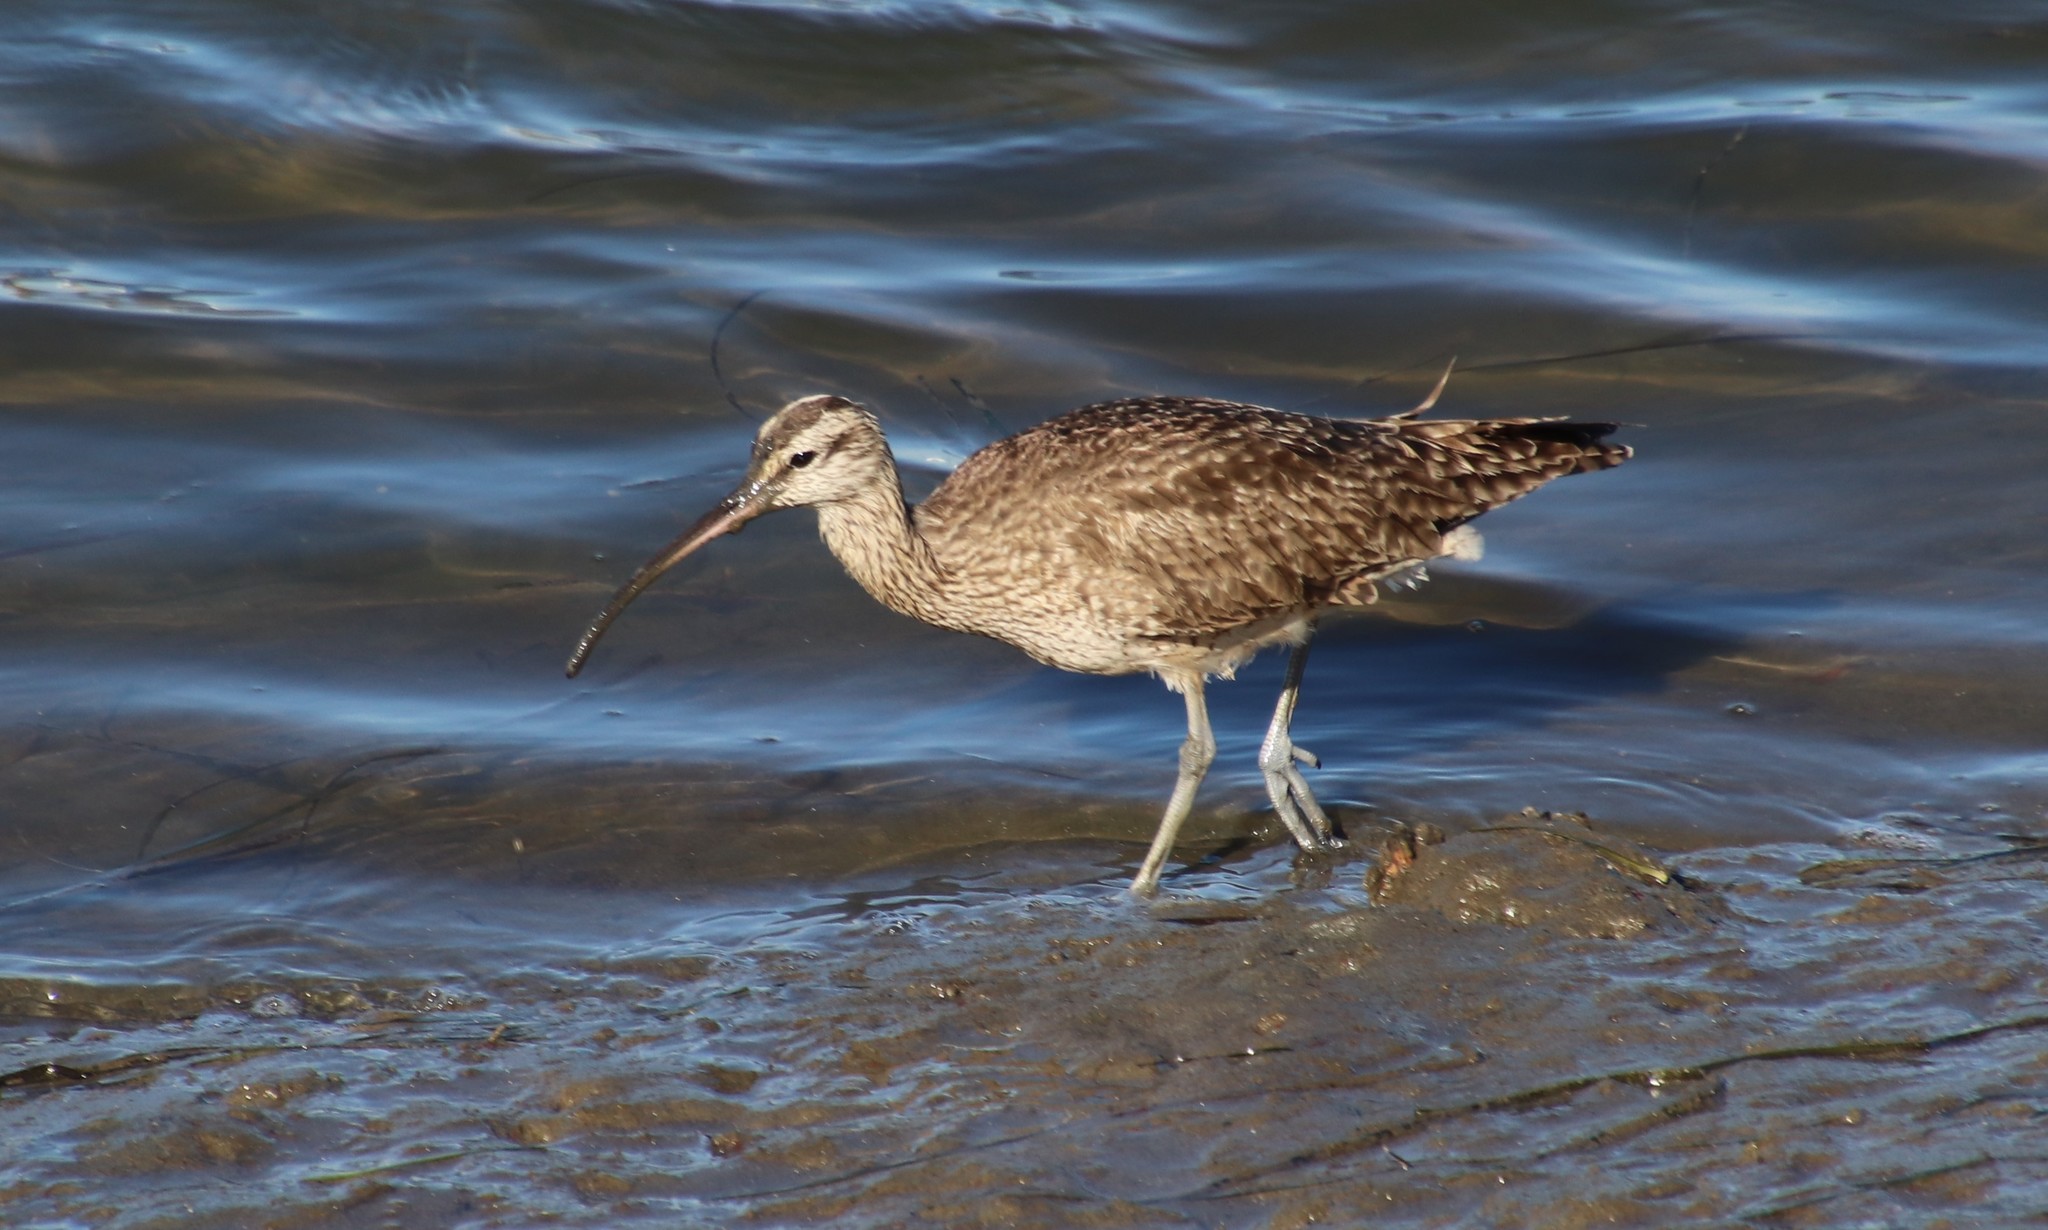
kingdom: Animalia
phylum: Chordata
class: Aves
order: Charadriiformes
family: Scolopacidae
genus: Numenius
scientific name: Numenius phaeopus
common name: Whimbrel
